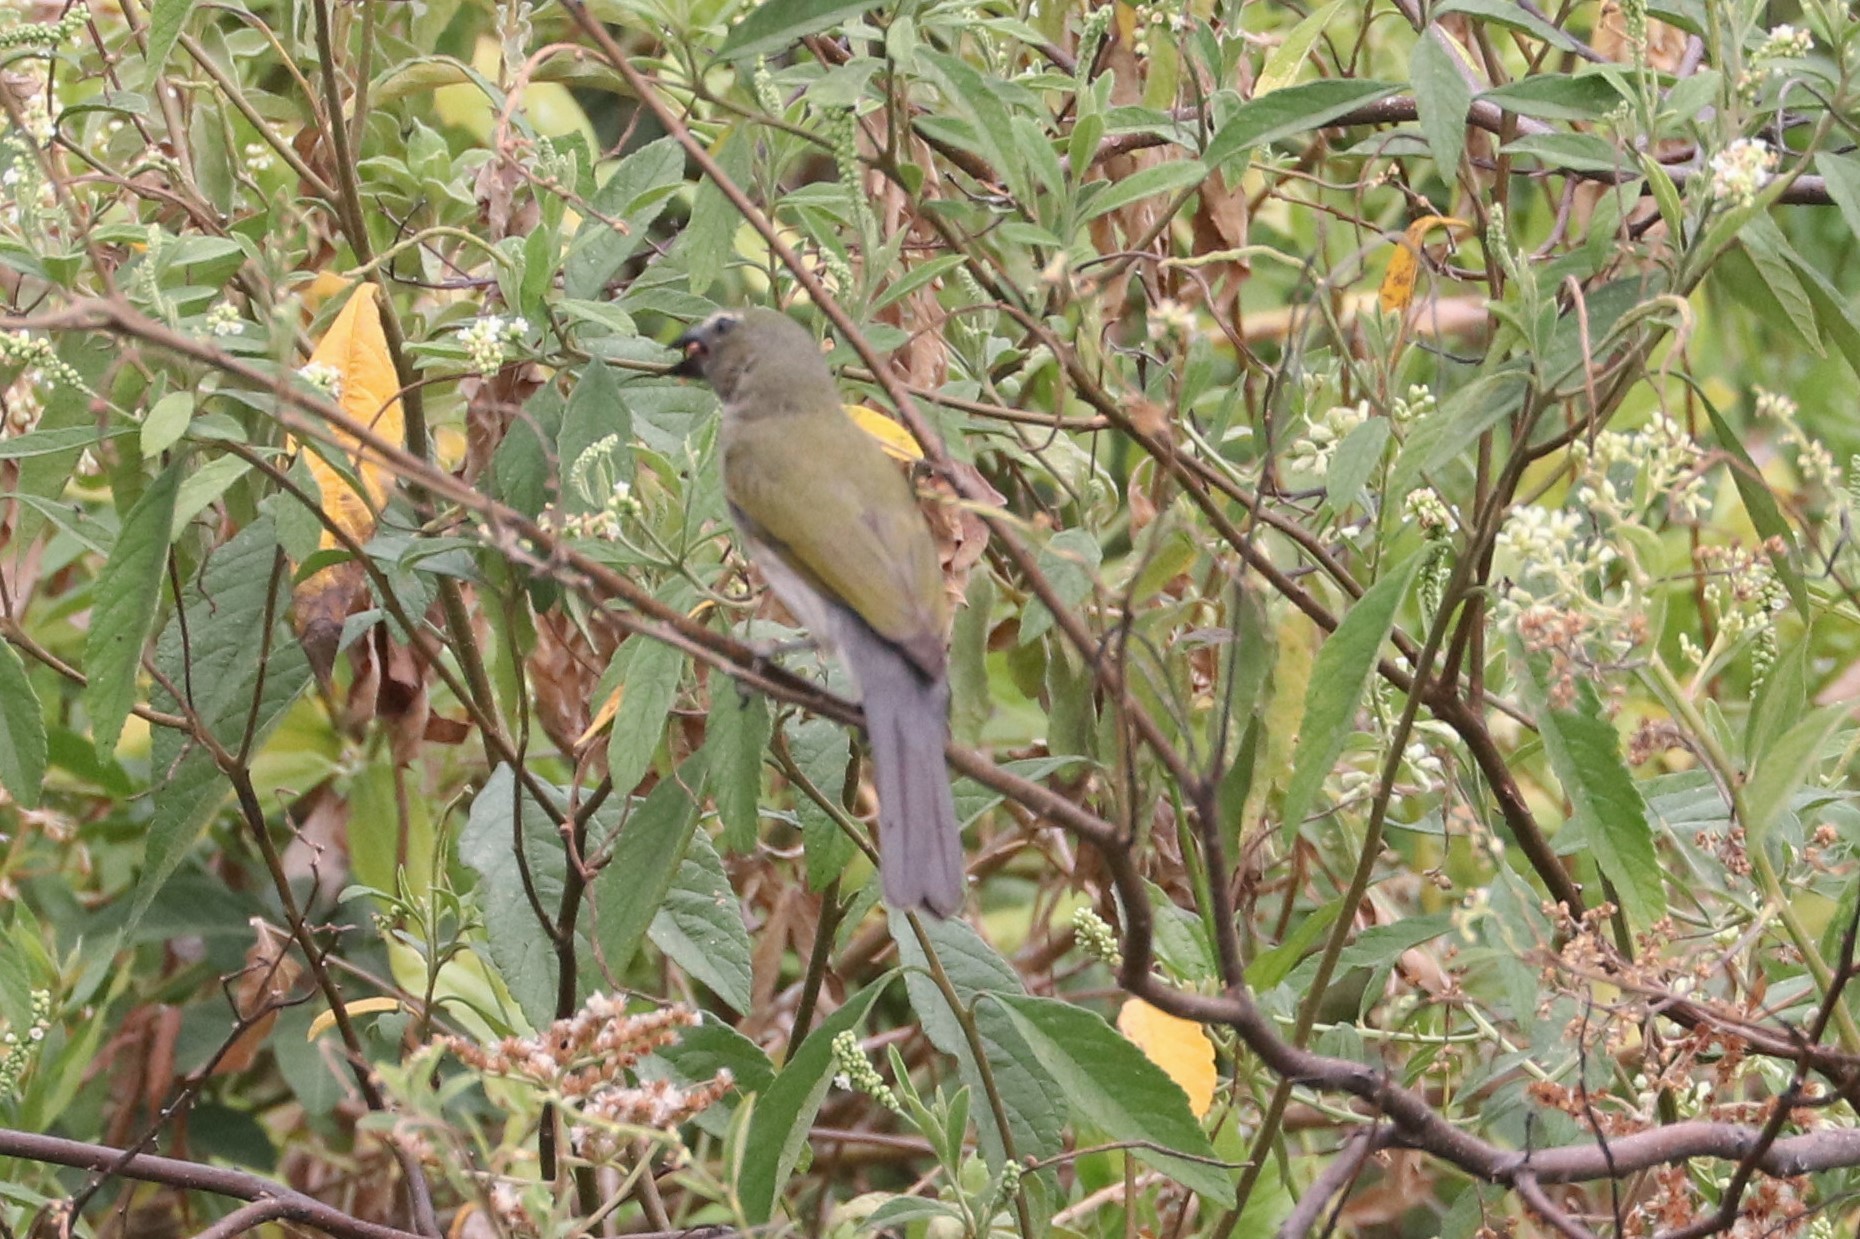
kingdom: Animalia
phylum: Chordata
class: Aves
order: Passeriformes
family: Thraupidae
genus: Saltator
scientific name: Saltator striatipectus
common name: Streaked saltator
